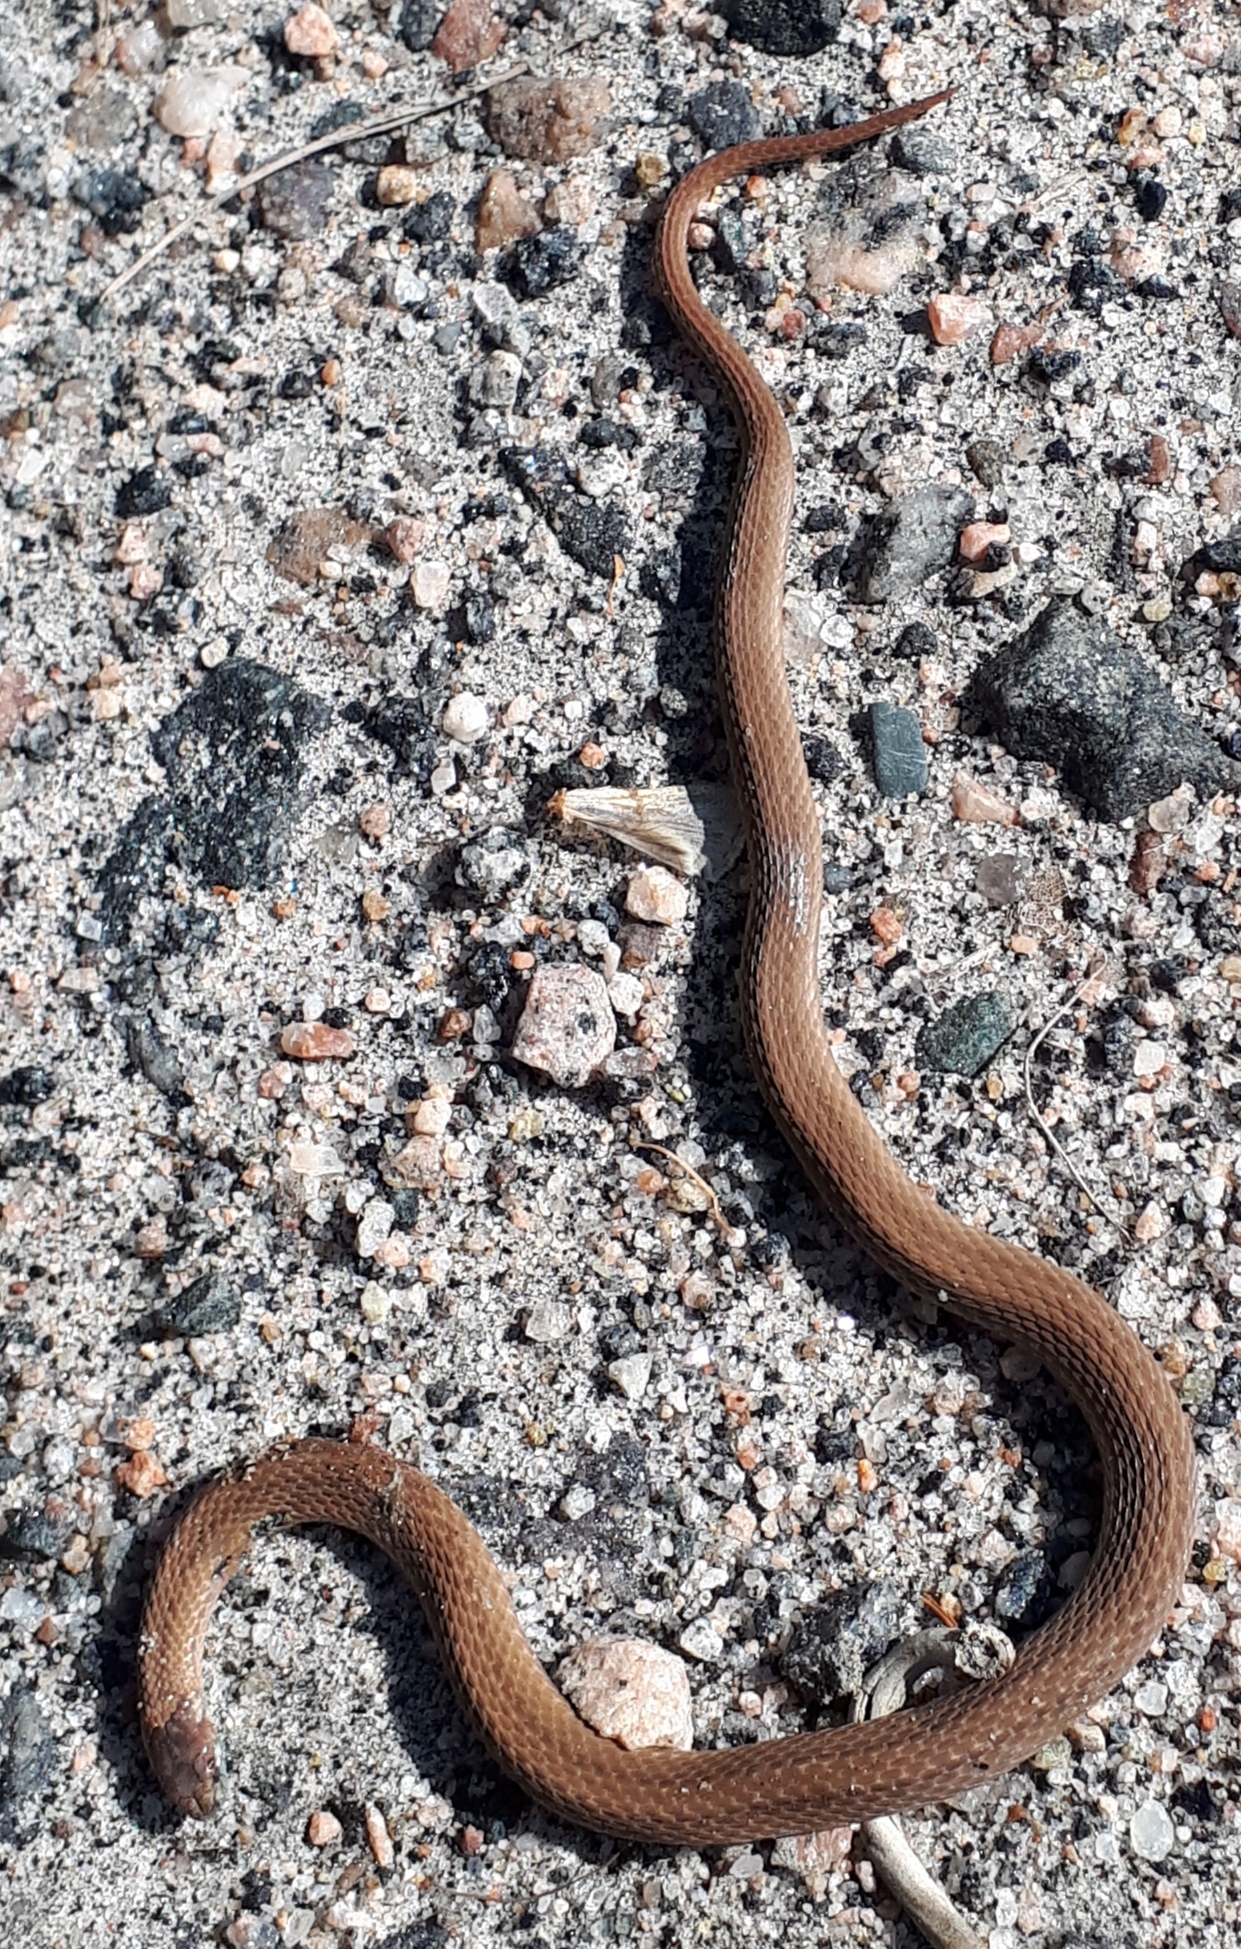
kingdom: Animalia
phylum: Chordata
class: Squamata
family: Colubridae
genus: Storeria
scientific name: Storeria occipitomaculata
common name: Redbelly snake
